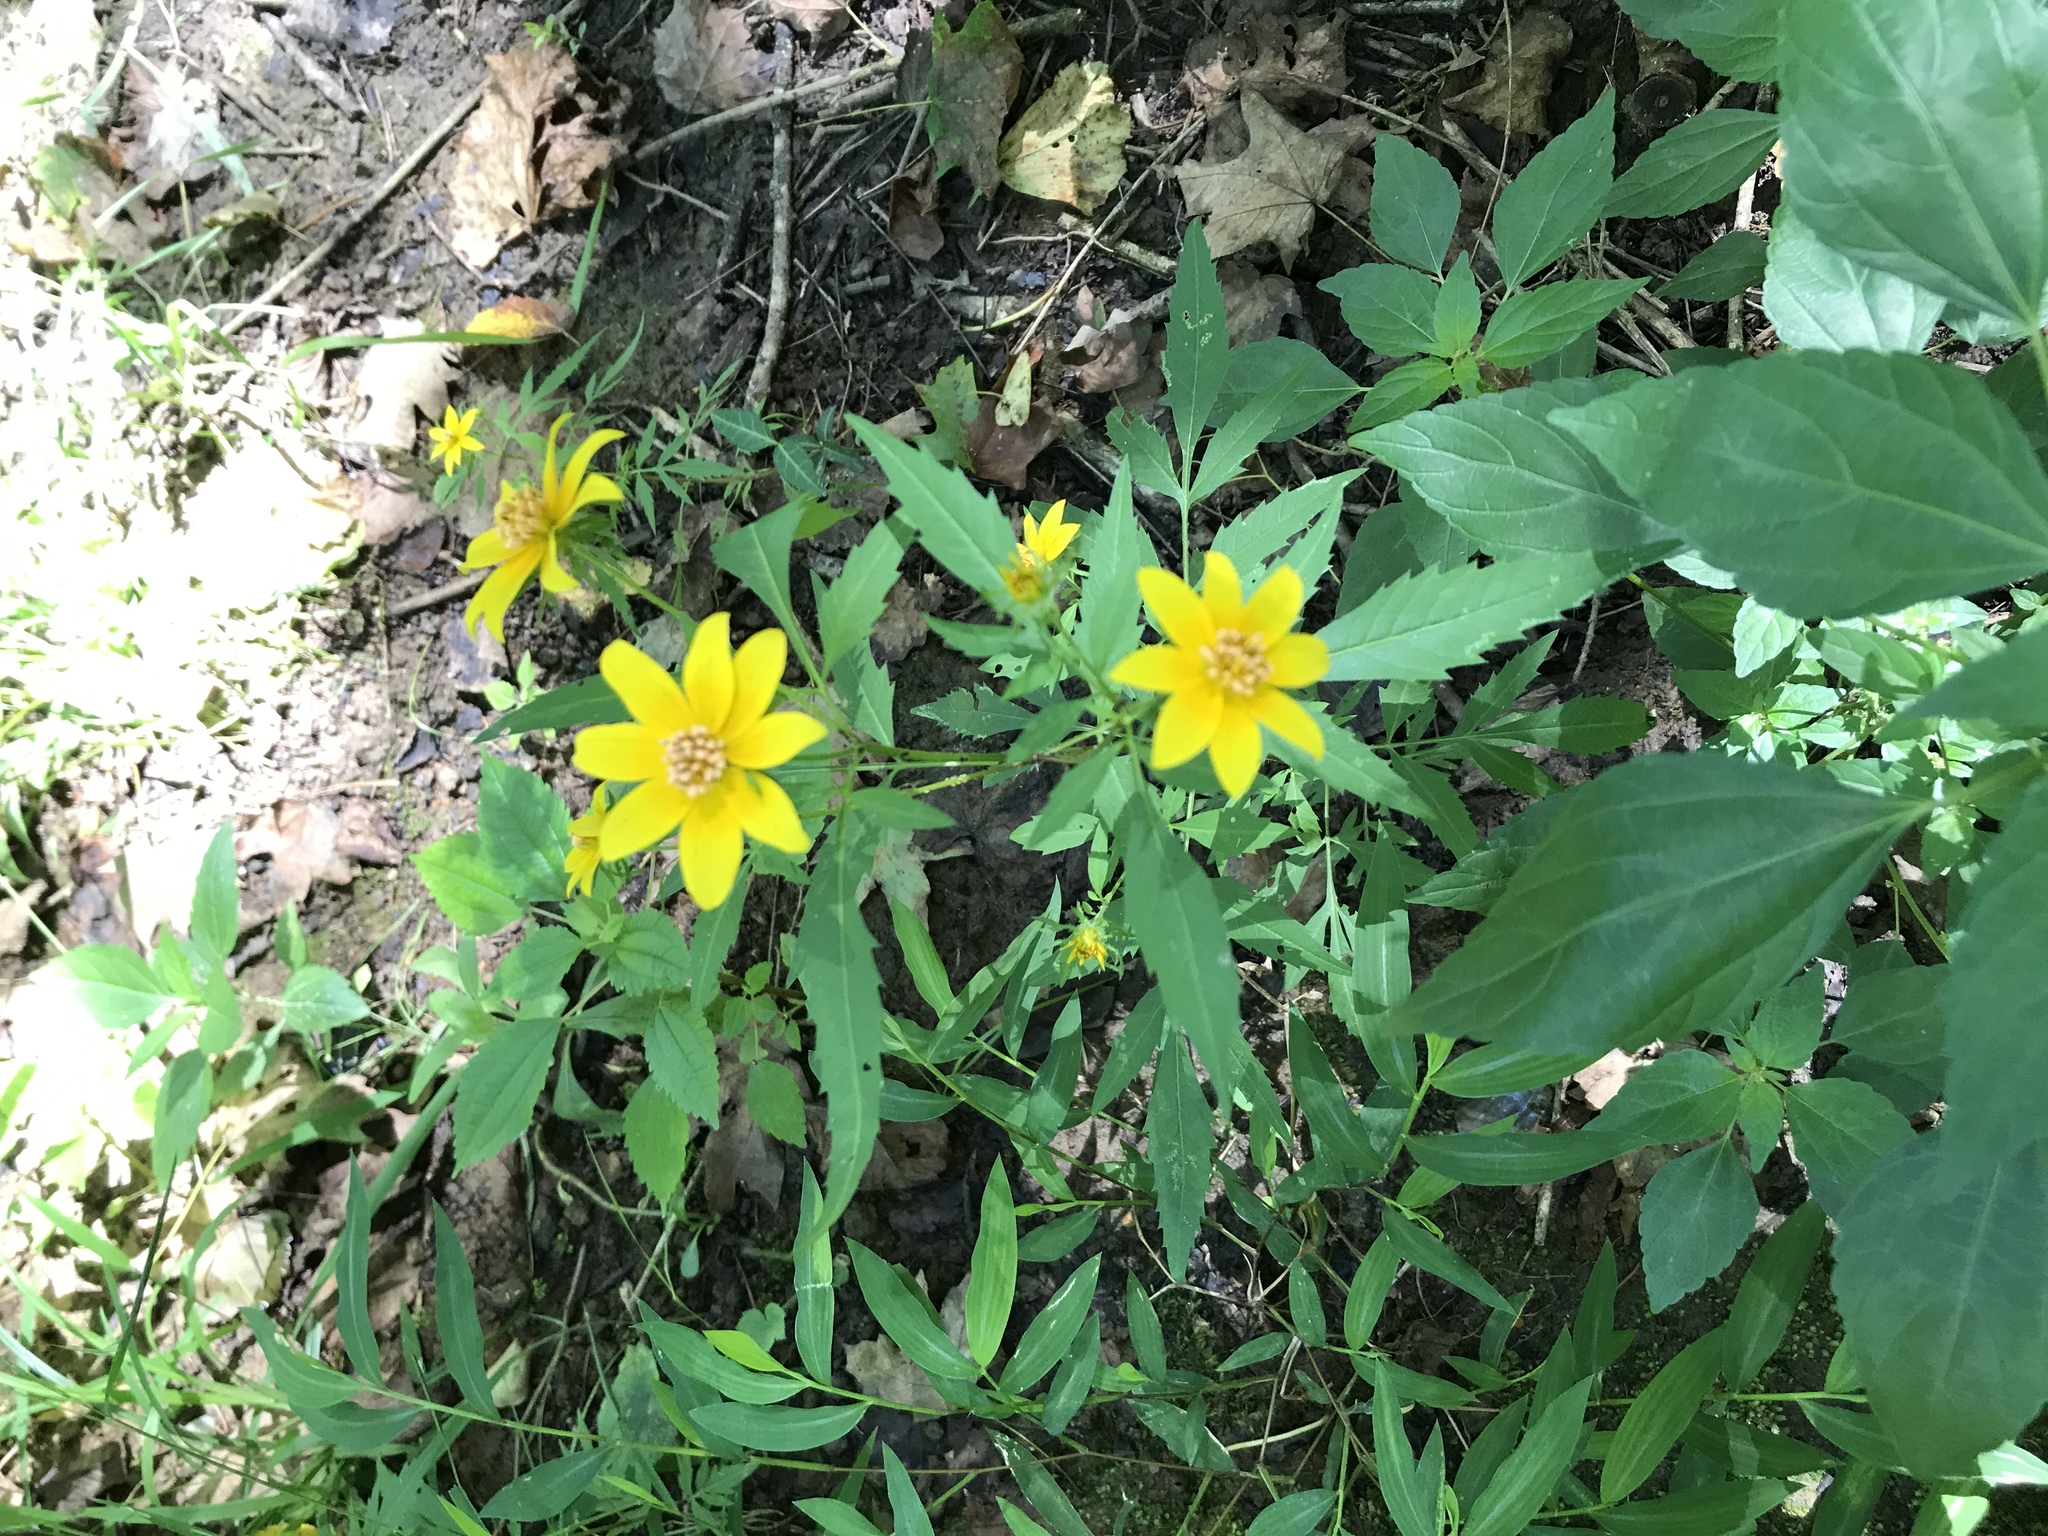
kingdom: Plantae
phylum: Tracheophyta
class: Magnoliopsida
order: Asterales
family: Asteraceae
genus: Bidens
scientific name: Bidens aristosa
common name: Western tickseed
